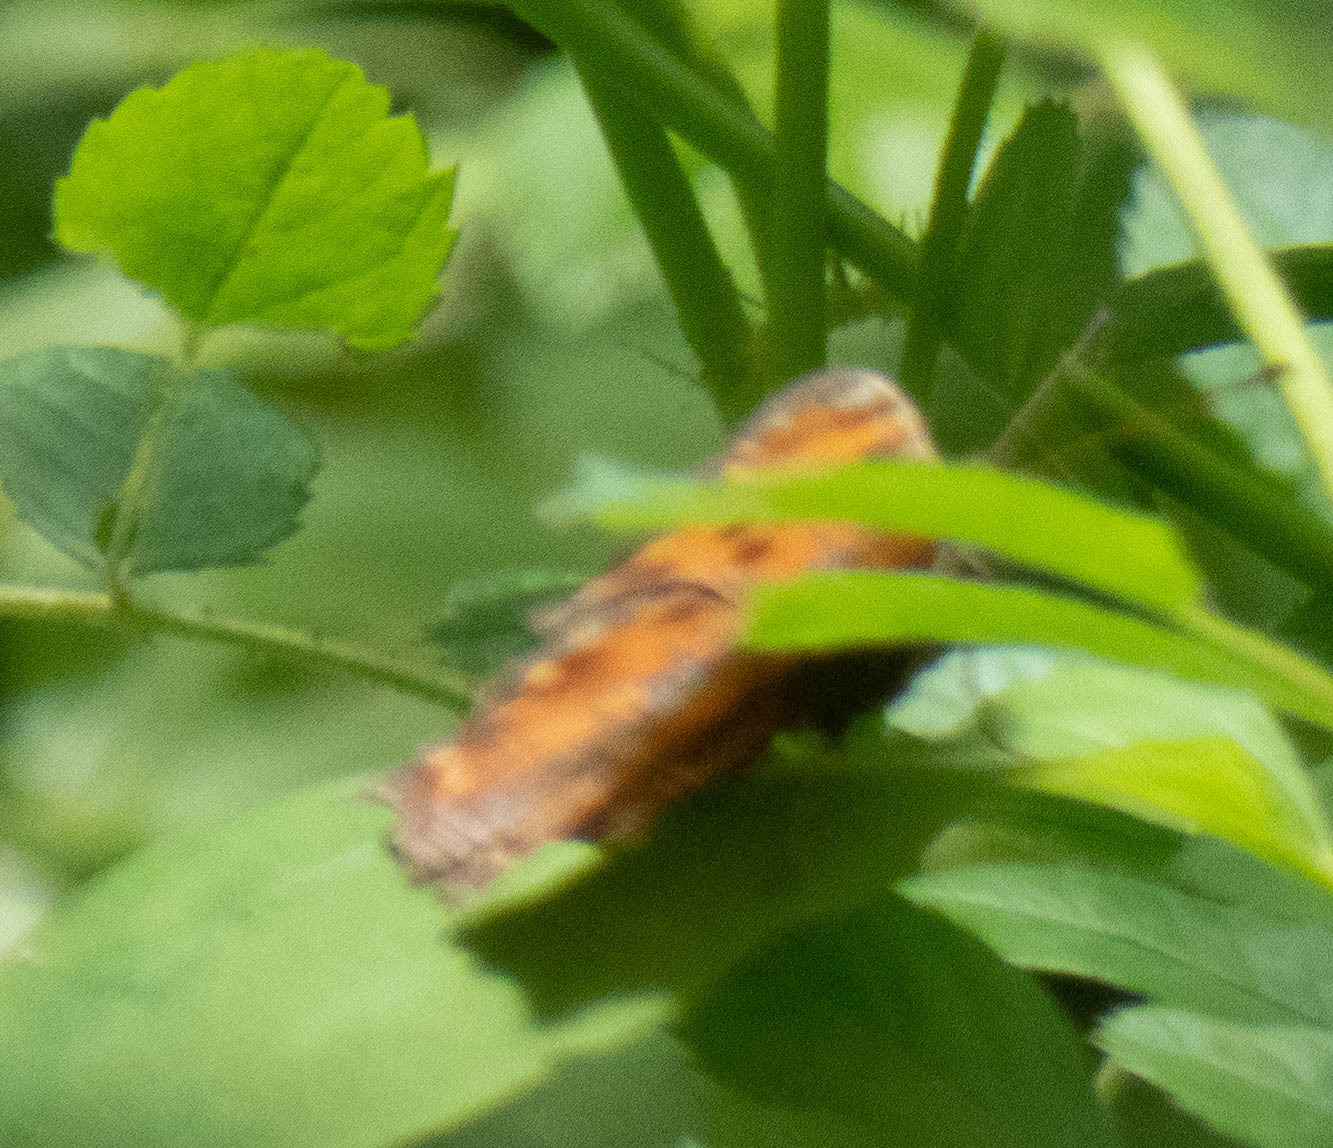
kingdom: Animalia
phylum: Arthropoda
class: Insecta
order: Lepidoptera
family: Nymphalidae
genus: Polygonia
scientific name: Polygonia comma
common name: Eastern comma
